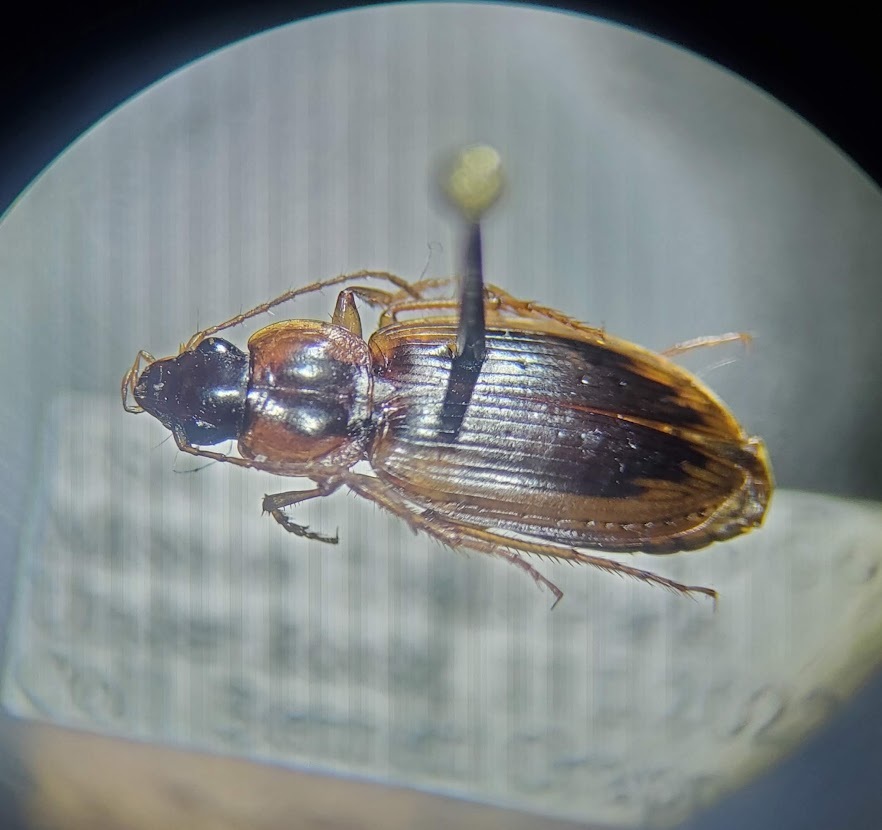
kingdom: Animalia
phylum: Arthropoda
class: Insecta
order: Coleoptera
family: Carabidae
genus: Tanystoma
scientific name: Tanystoma maculicolle
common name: Tule beetle
